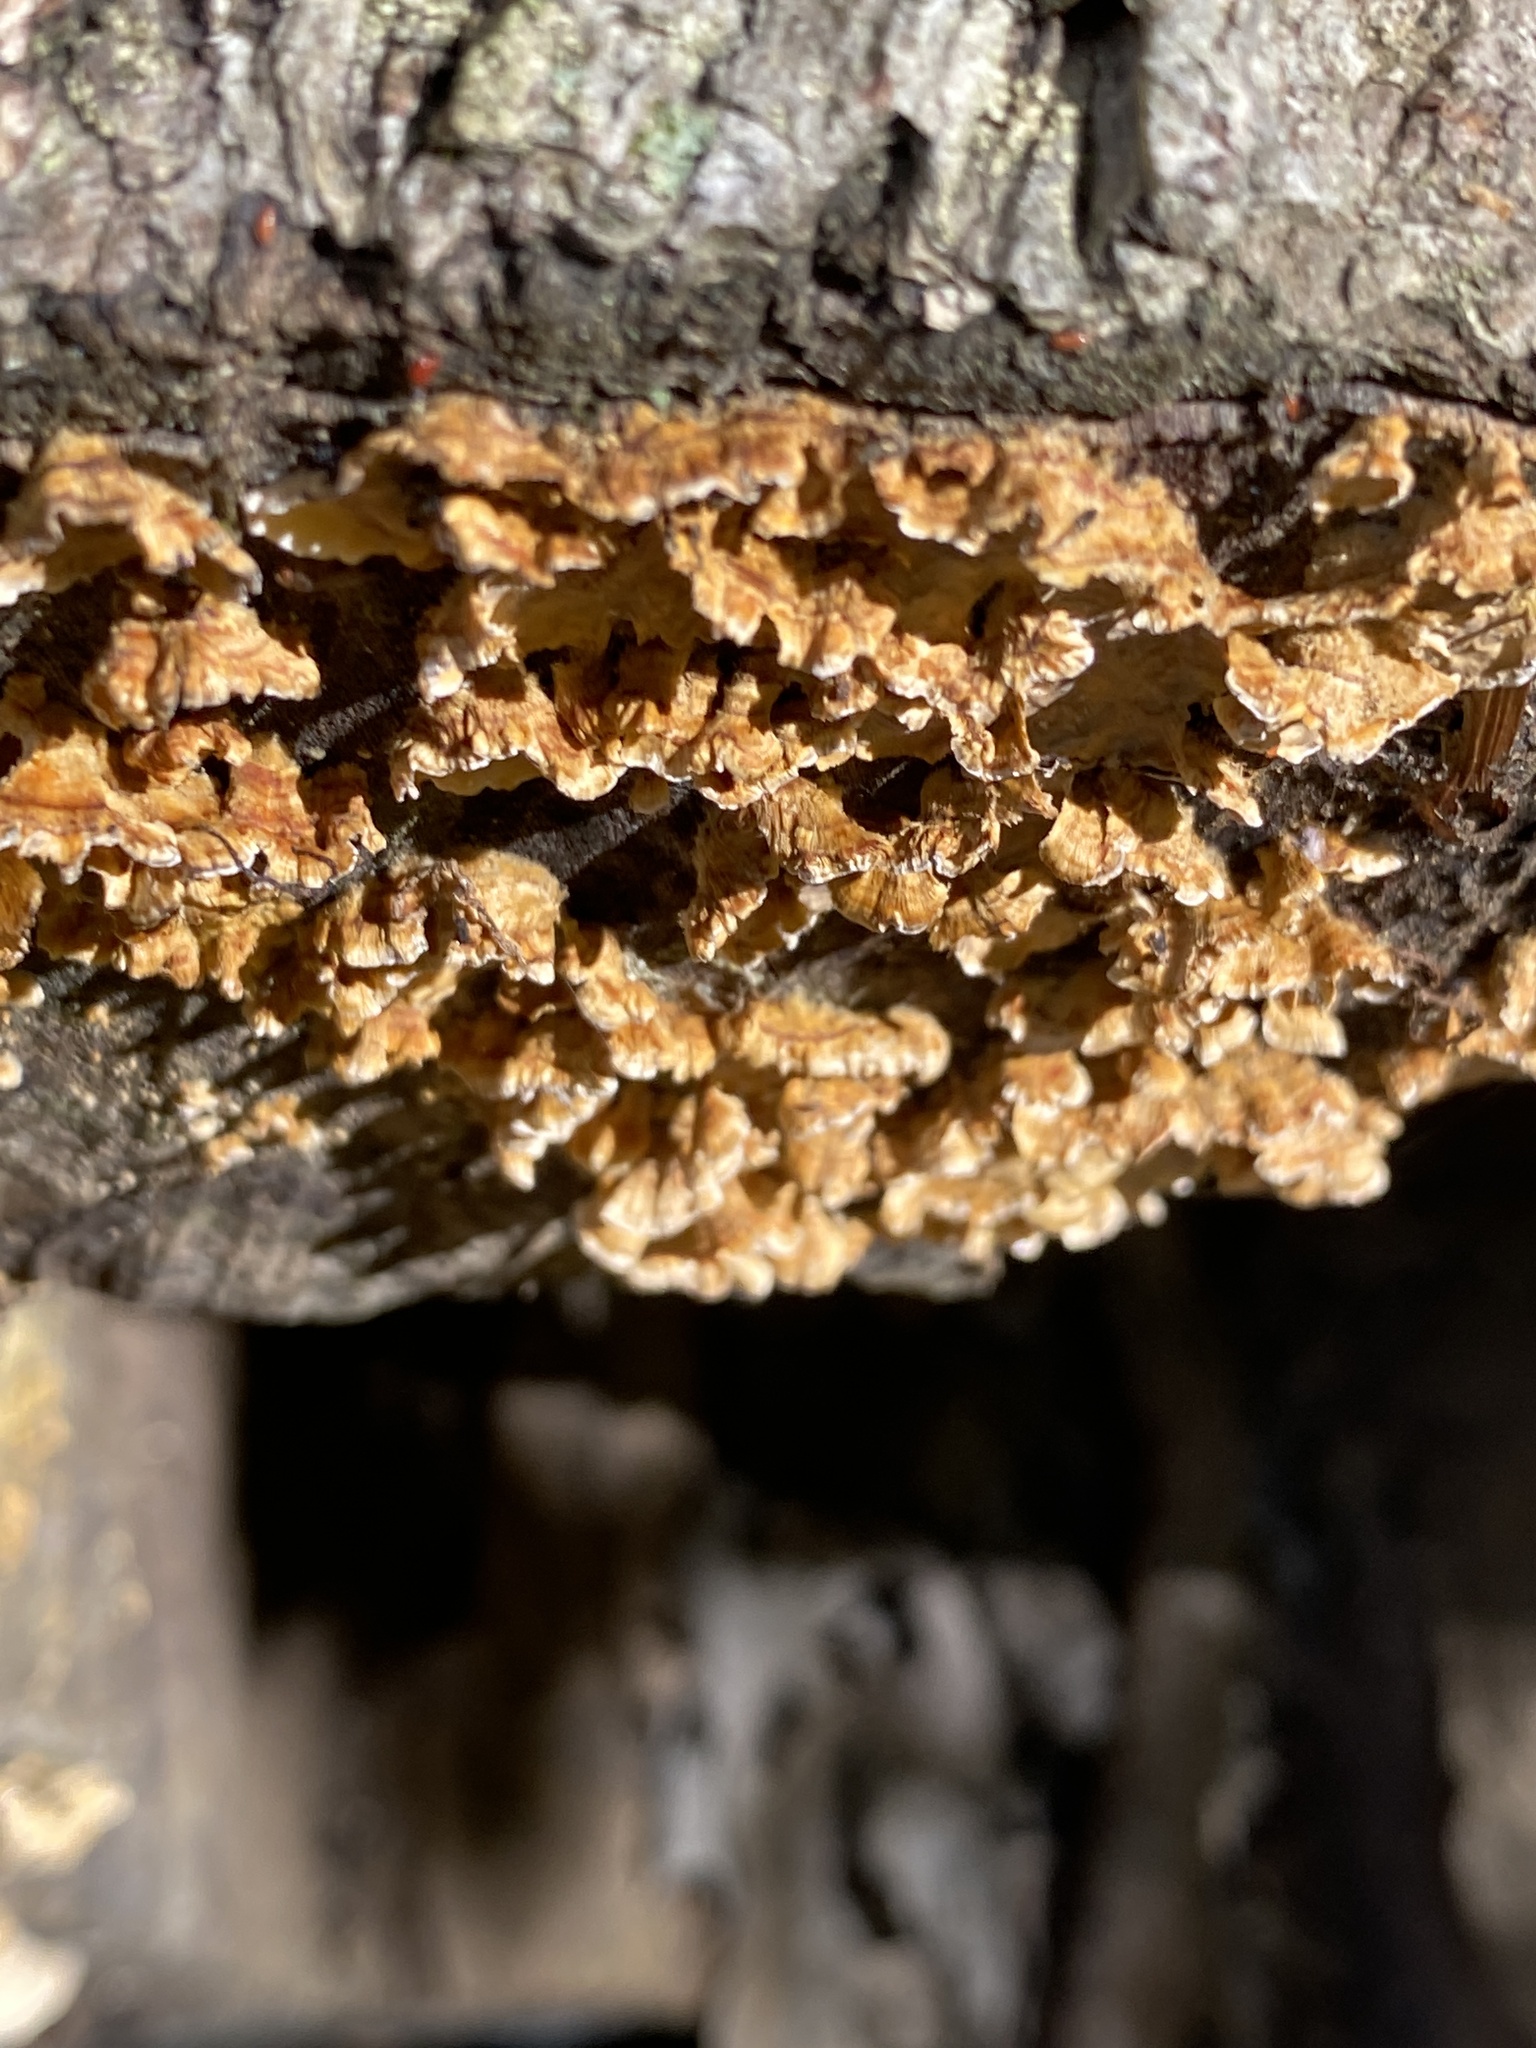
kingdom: Fungi
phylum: Basidiomycota
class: Agaricomycetes
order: Russulales
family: Stereaceae
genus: Stereum
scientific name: Stereum complicatum
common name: Crowded parchment
